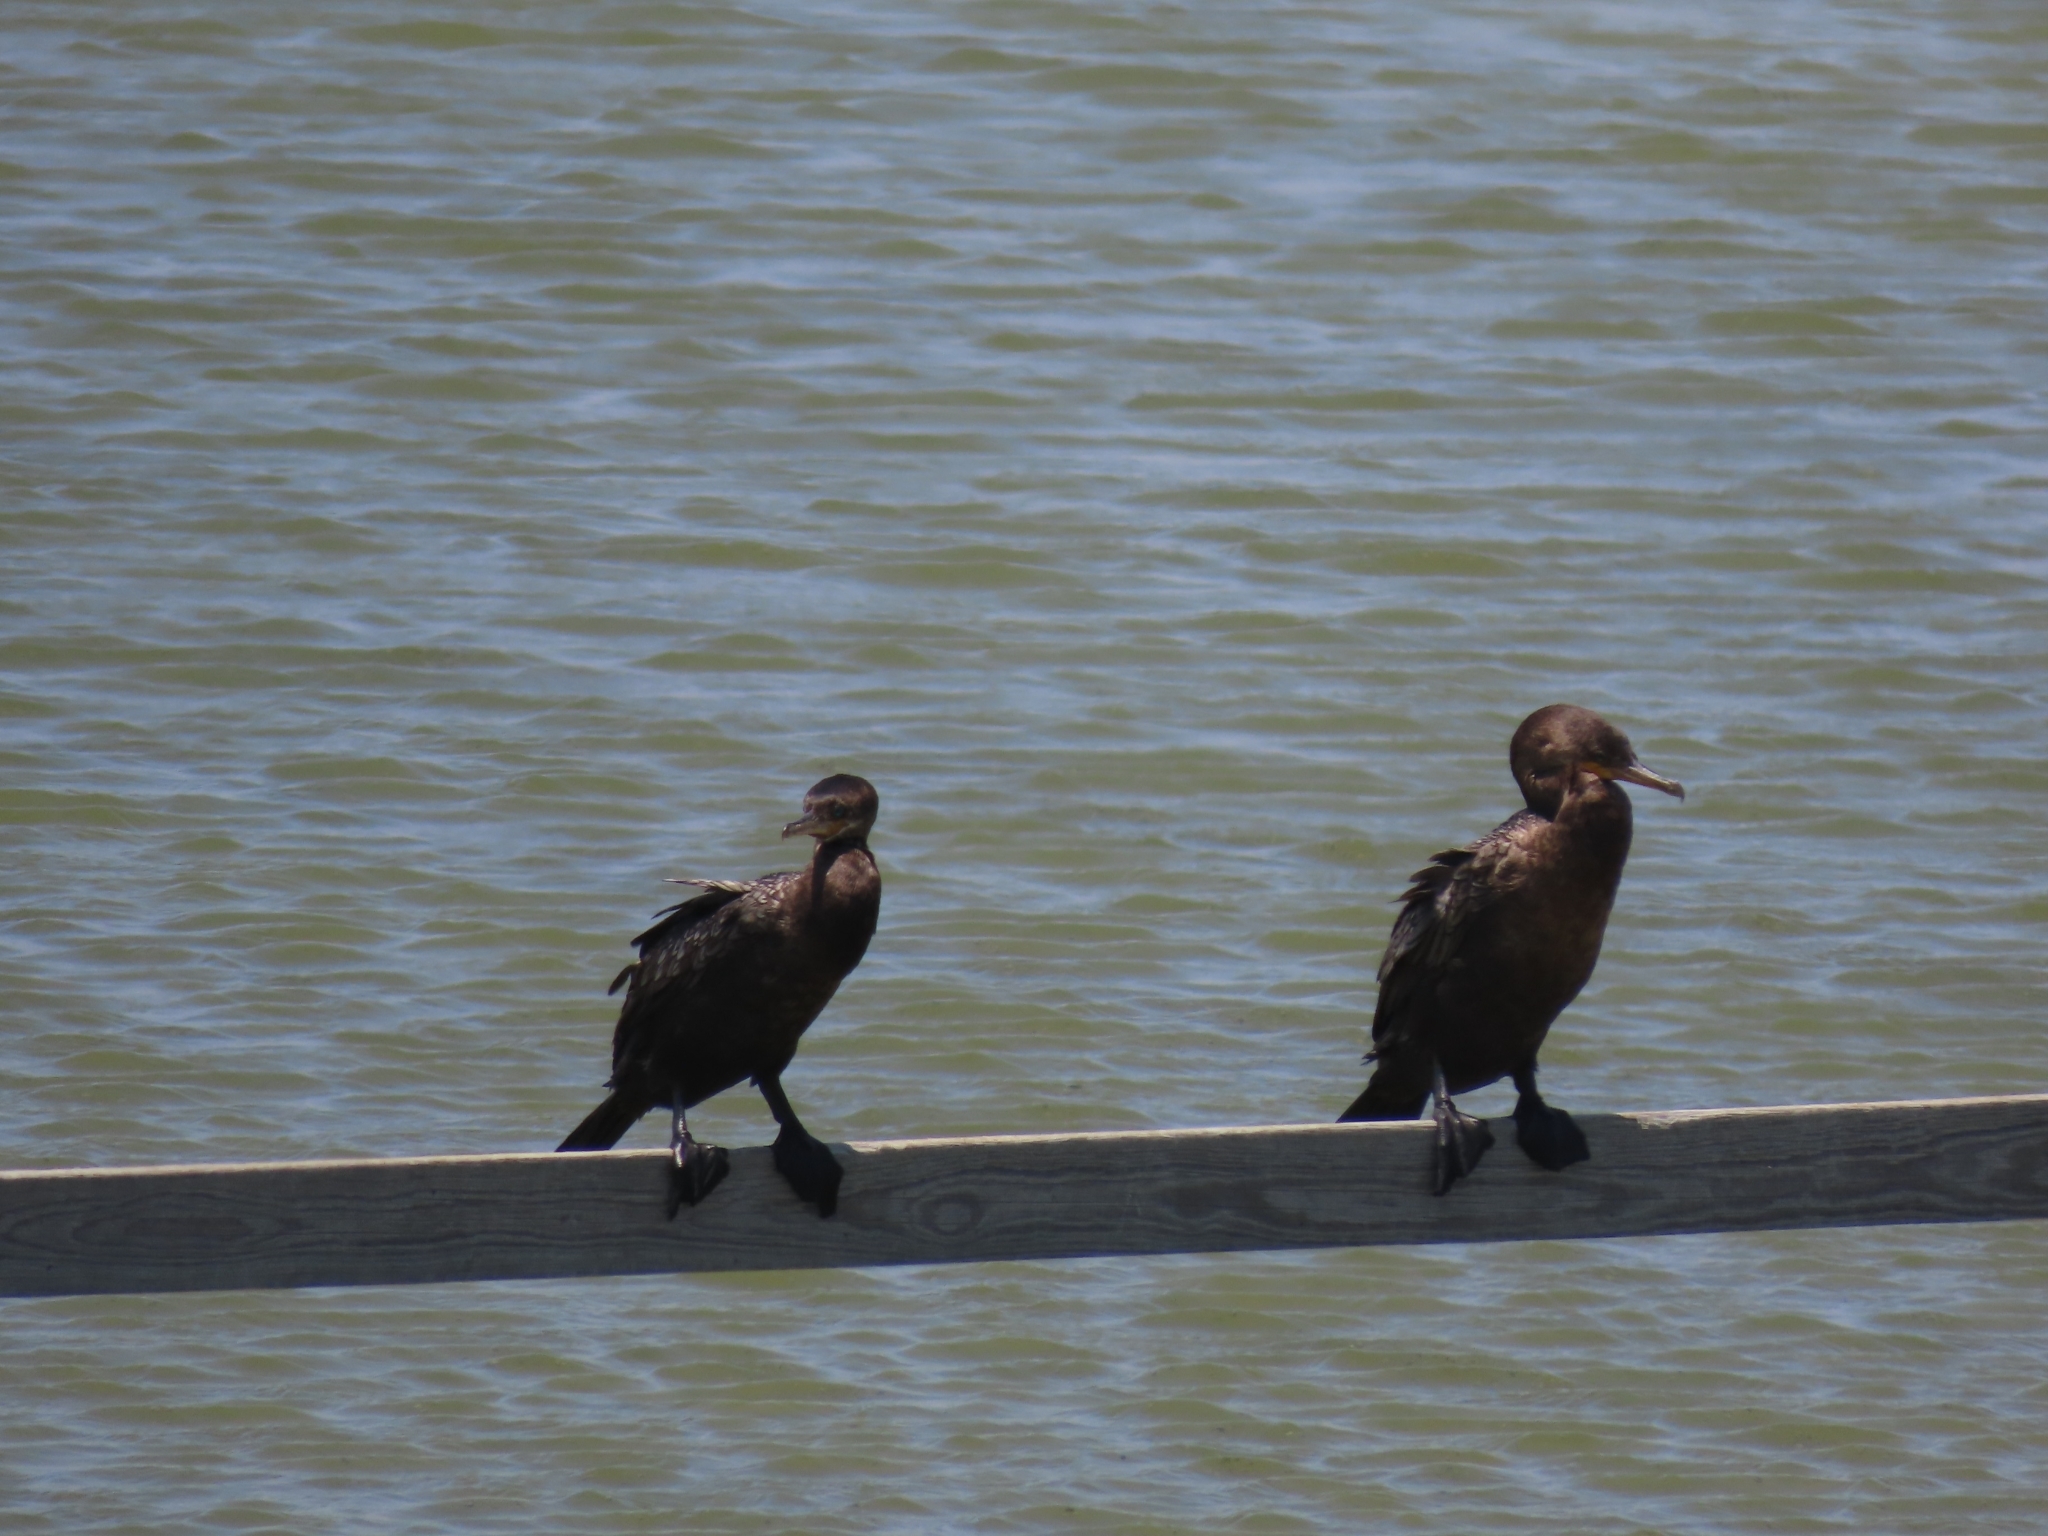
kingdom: Animalia
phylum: Chordata
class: Aves
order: Suliformes
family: Phalacrocoracidae
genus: Phalacrocorax
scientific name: Phalacrocorax brasilianus
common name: Neotropic cormorant
